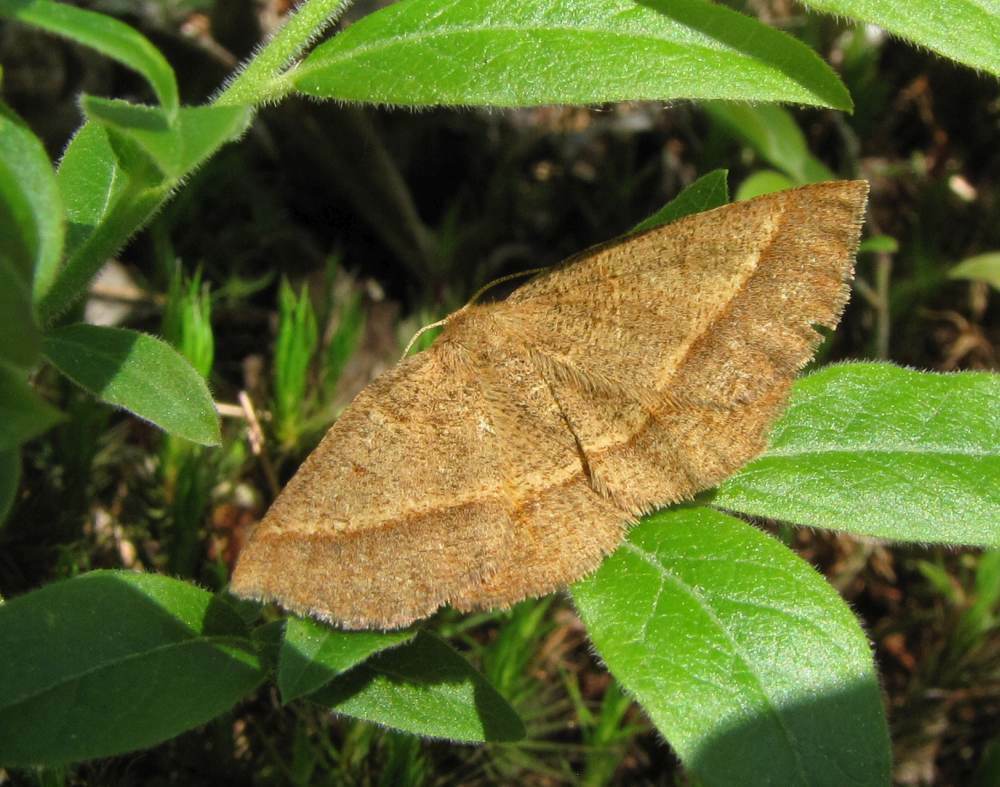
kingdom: Animalia
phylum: Arthropoda
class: Insecta
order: Lepidoptera
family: Geometridae
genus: Metarranthis
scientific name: Metarranthis obfirmaria
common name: Yellow-washed metarranthis
